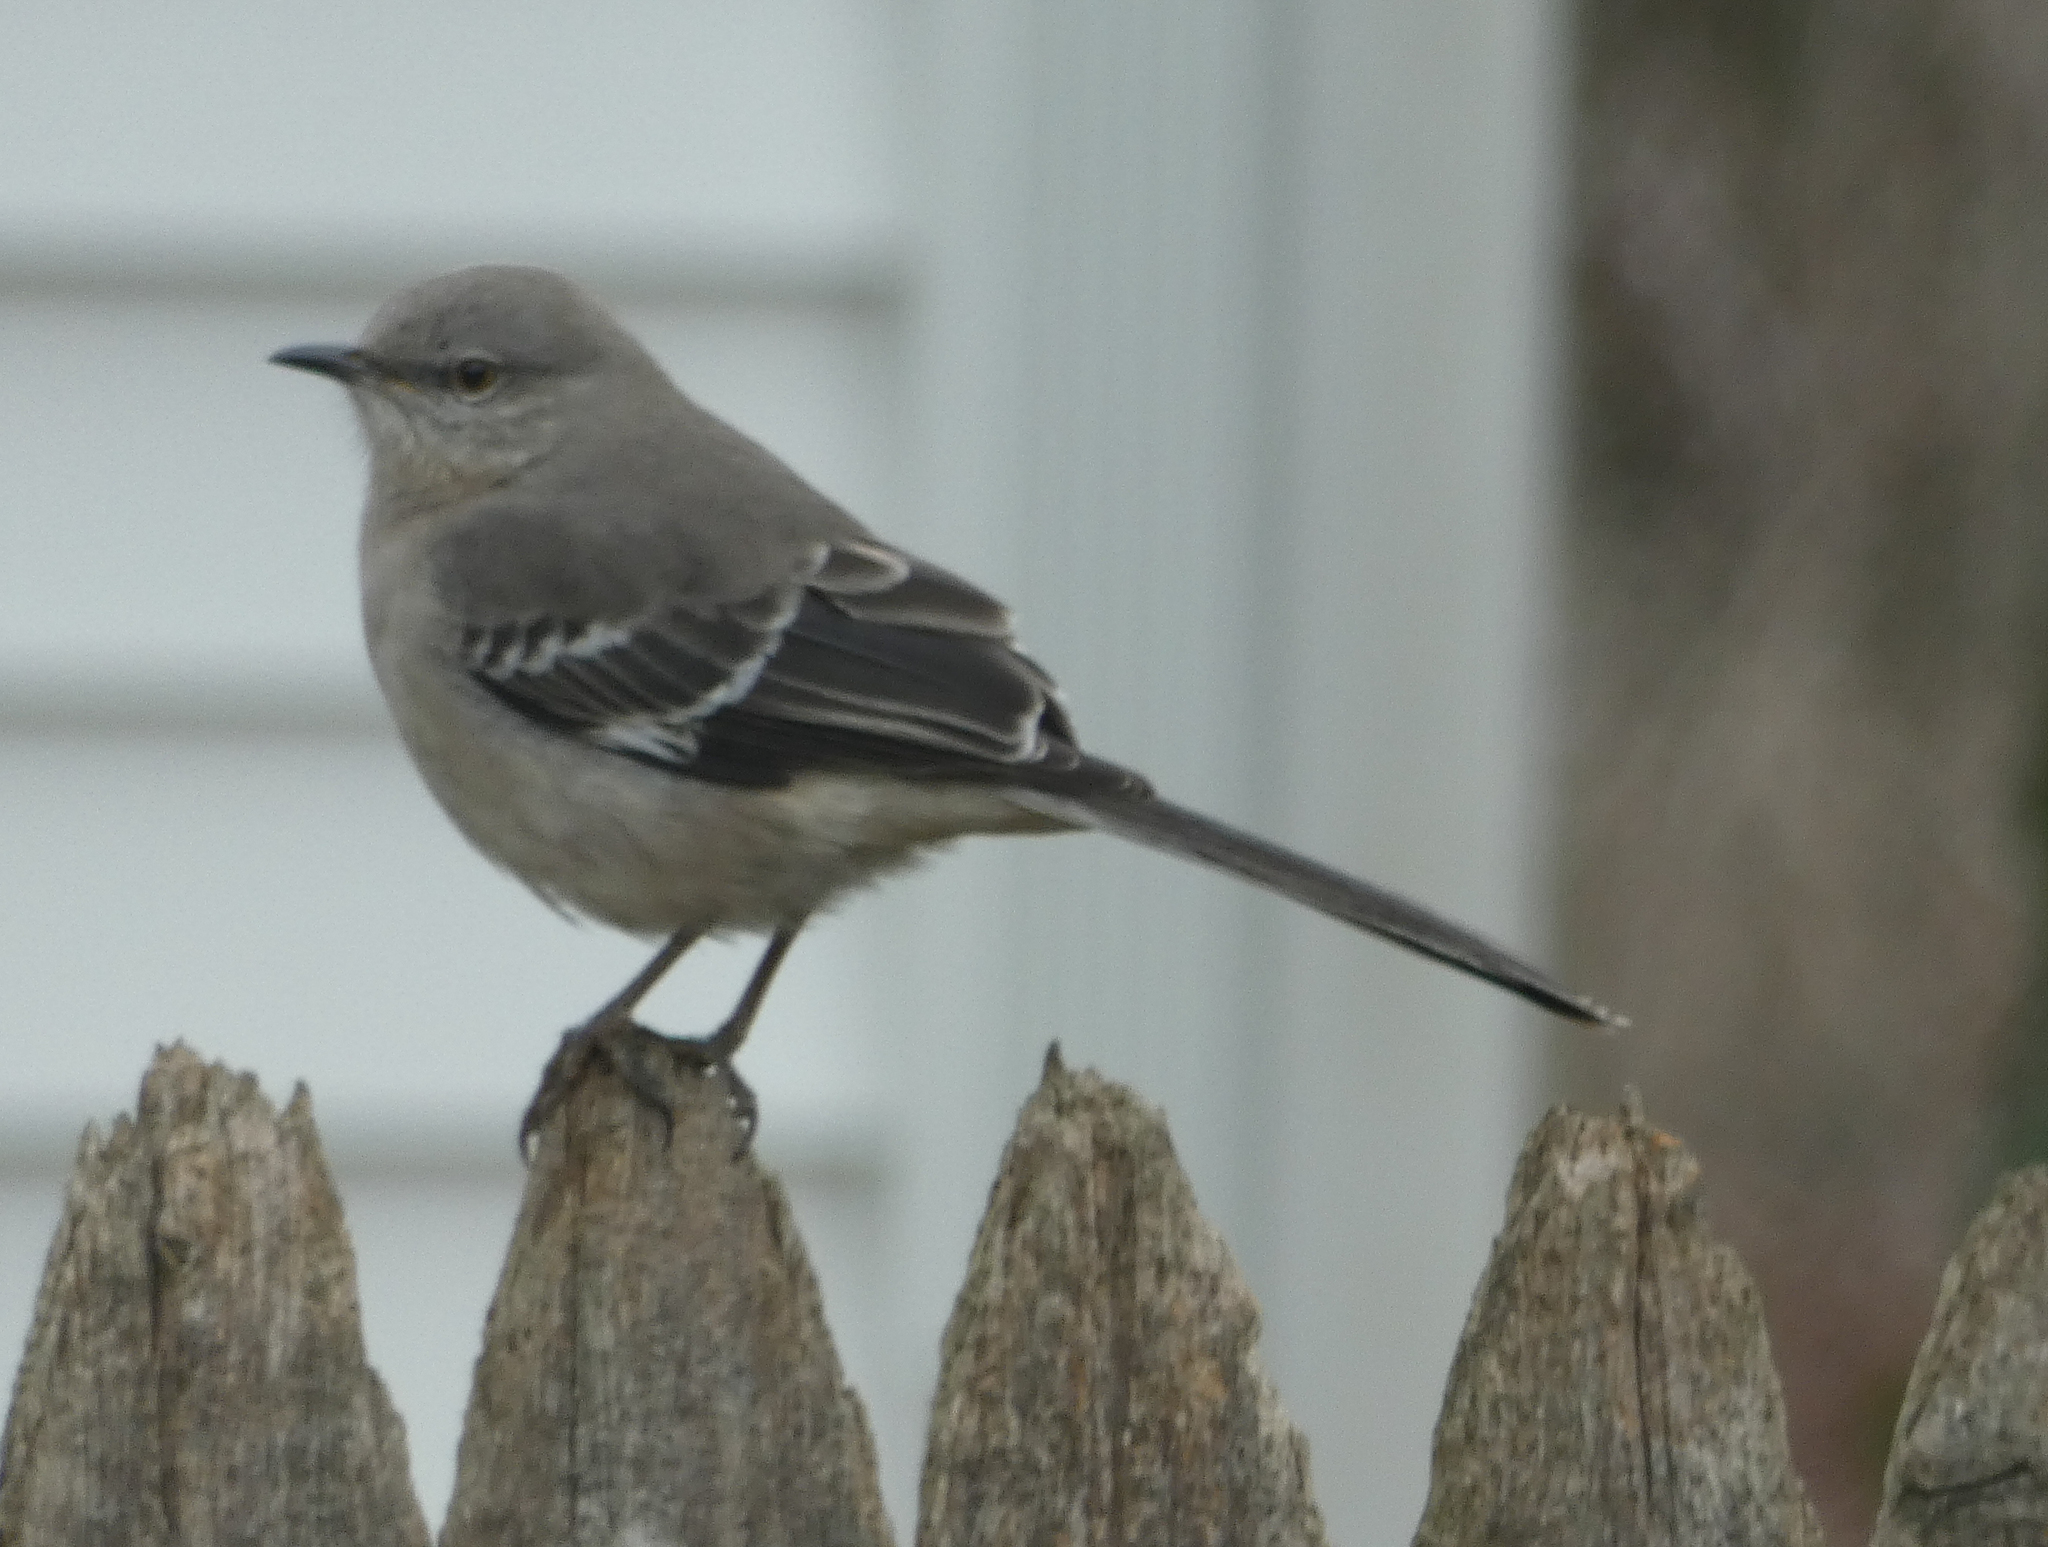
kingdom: Animalia
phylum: Chordata
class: Aves
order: Passeriformes
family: Mimidae
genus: Mimus
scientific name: Mimus polyglottos
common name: Northern mockingbird
